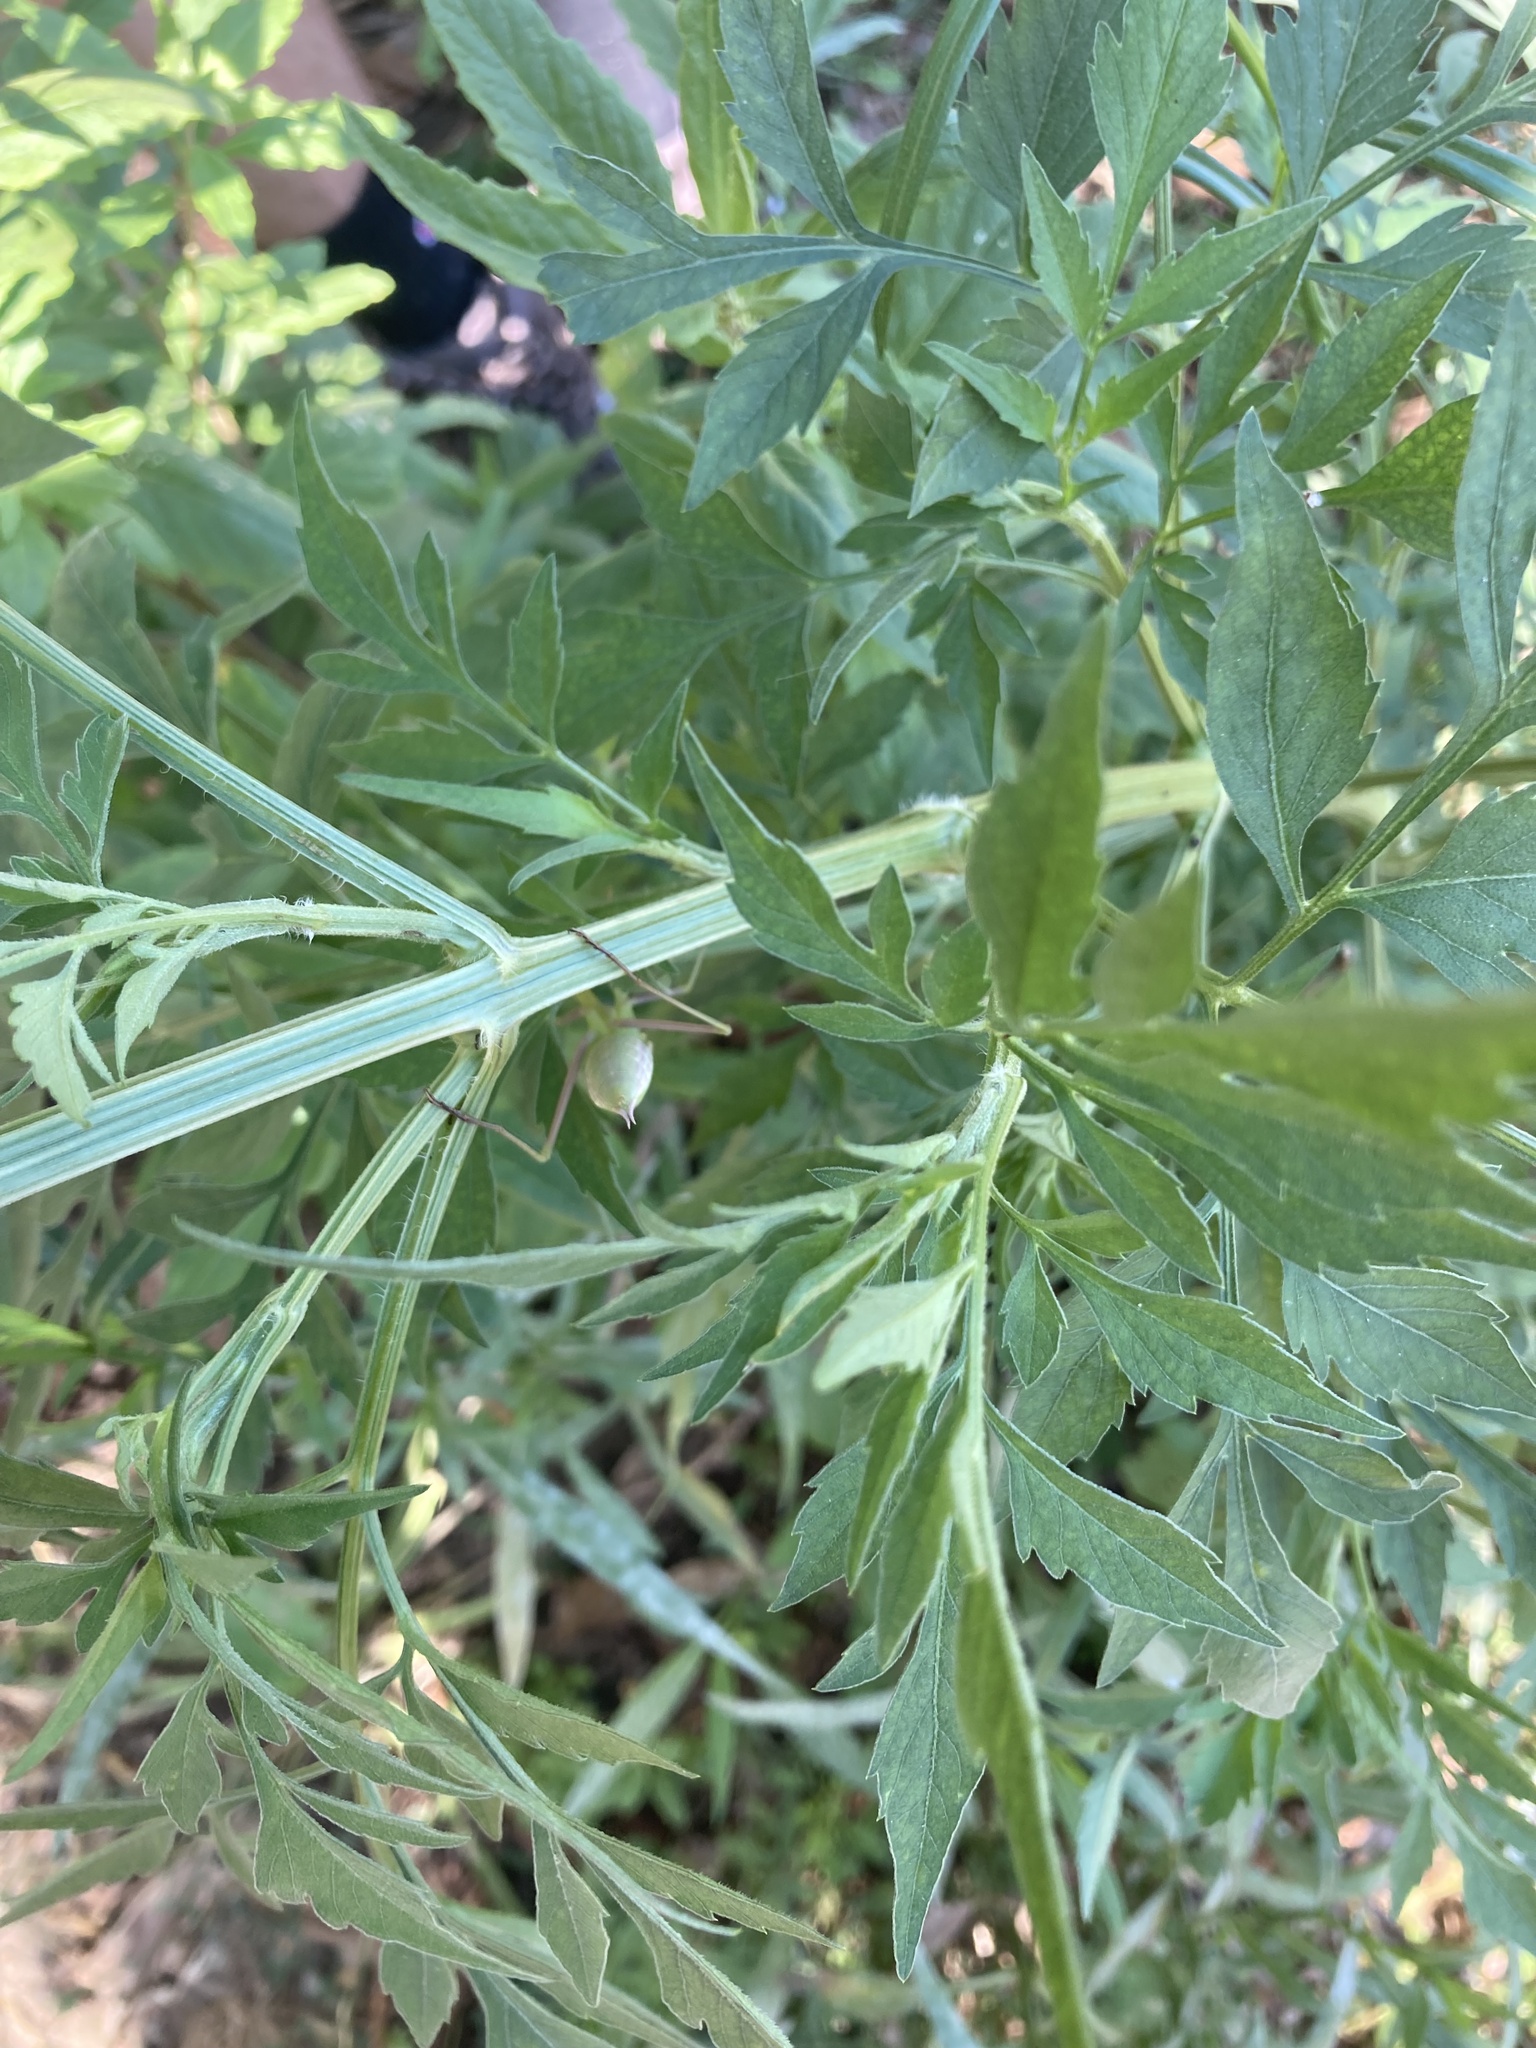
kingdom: Animalia
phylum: Arthropoda
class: Insecta
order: Mantodea
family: Mantidae
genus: Mantis
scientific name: Mantis religiosa
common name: Praying mantis
